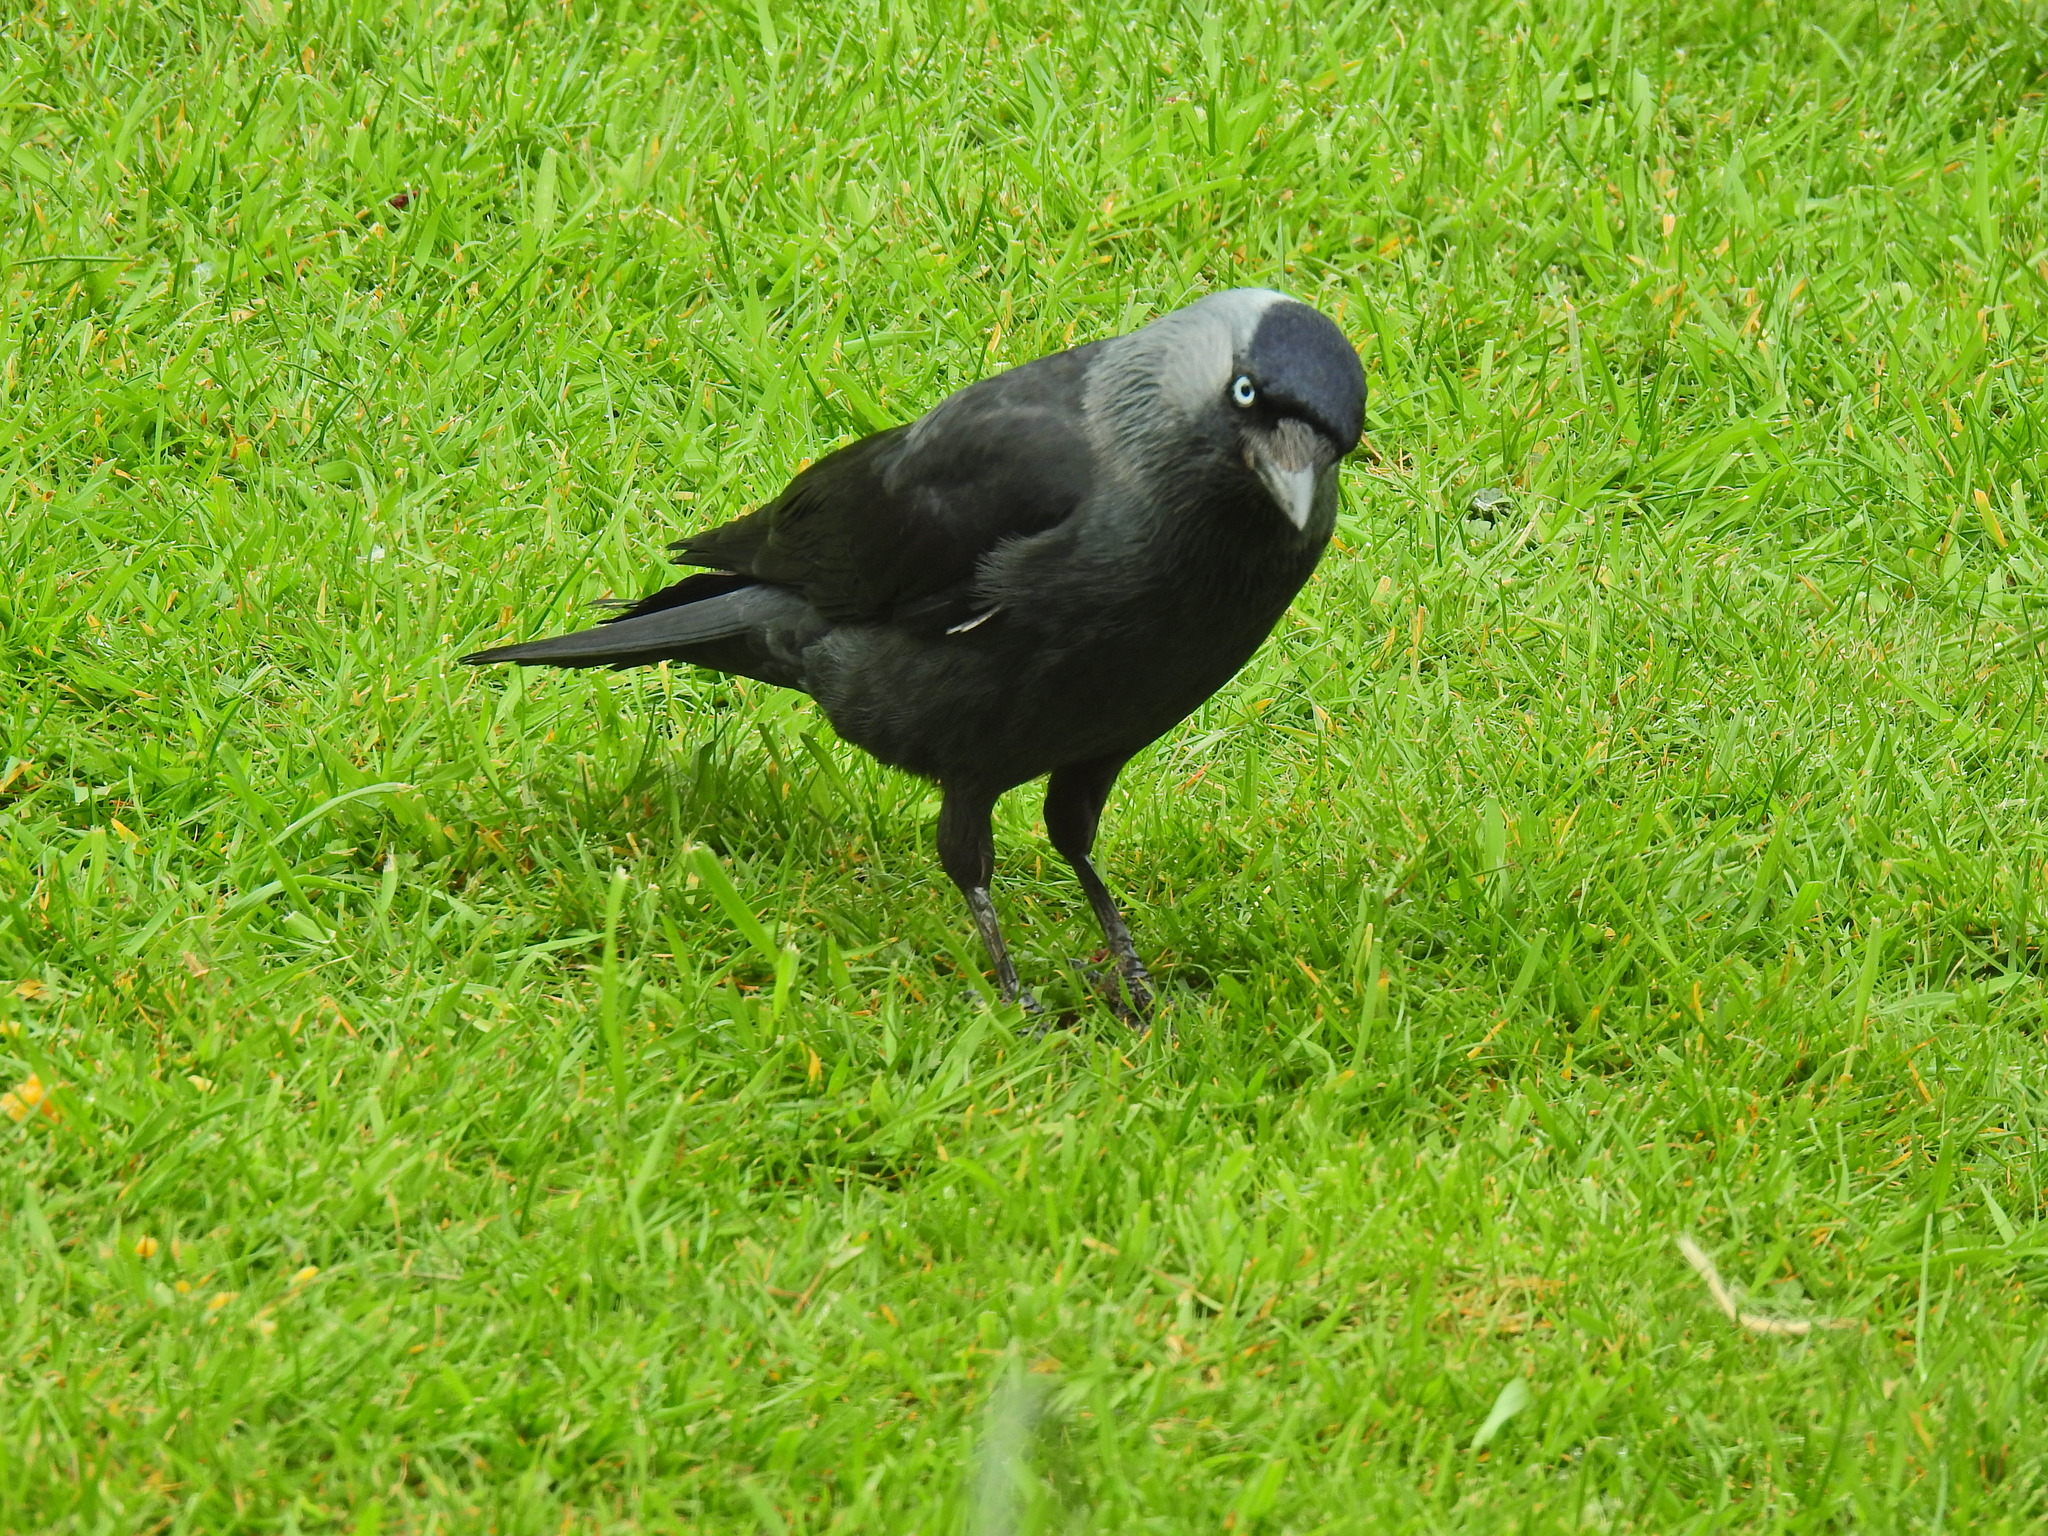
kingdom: Animalia
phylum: Chordata
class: Aves
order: Passeriformes
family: Corvidae
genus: Coloeus
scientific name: Coloeus monedula
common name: Western jackdaw
